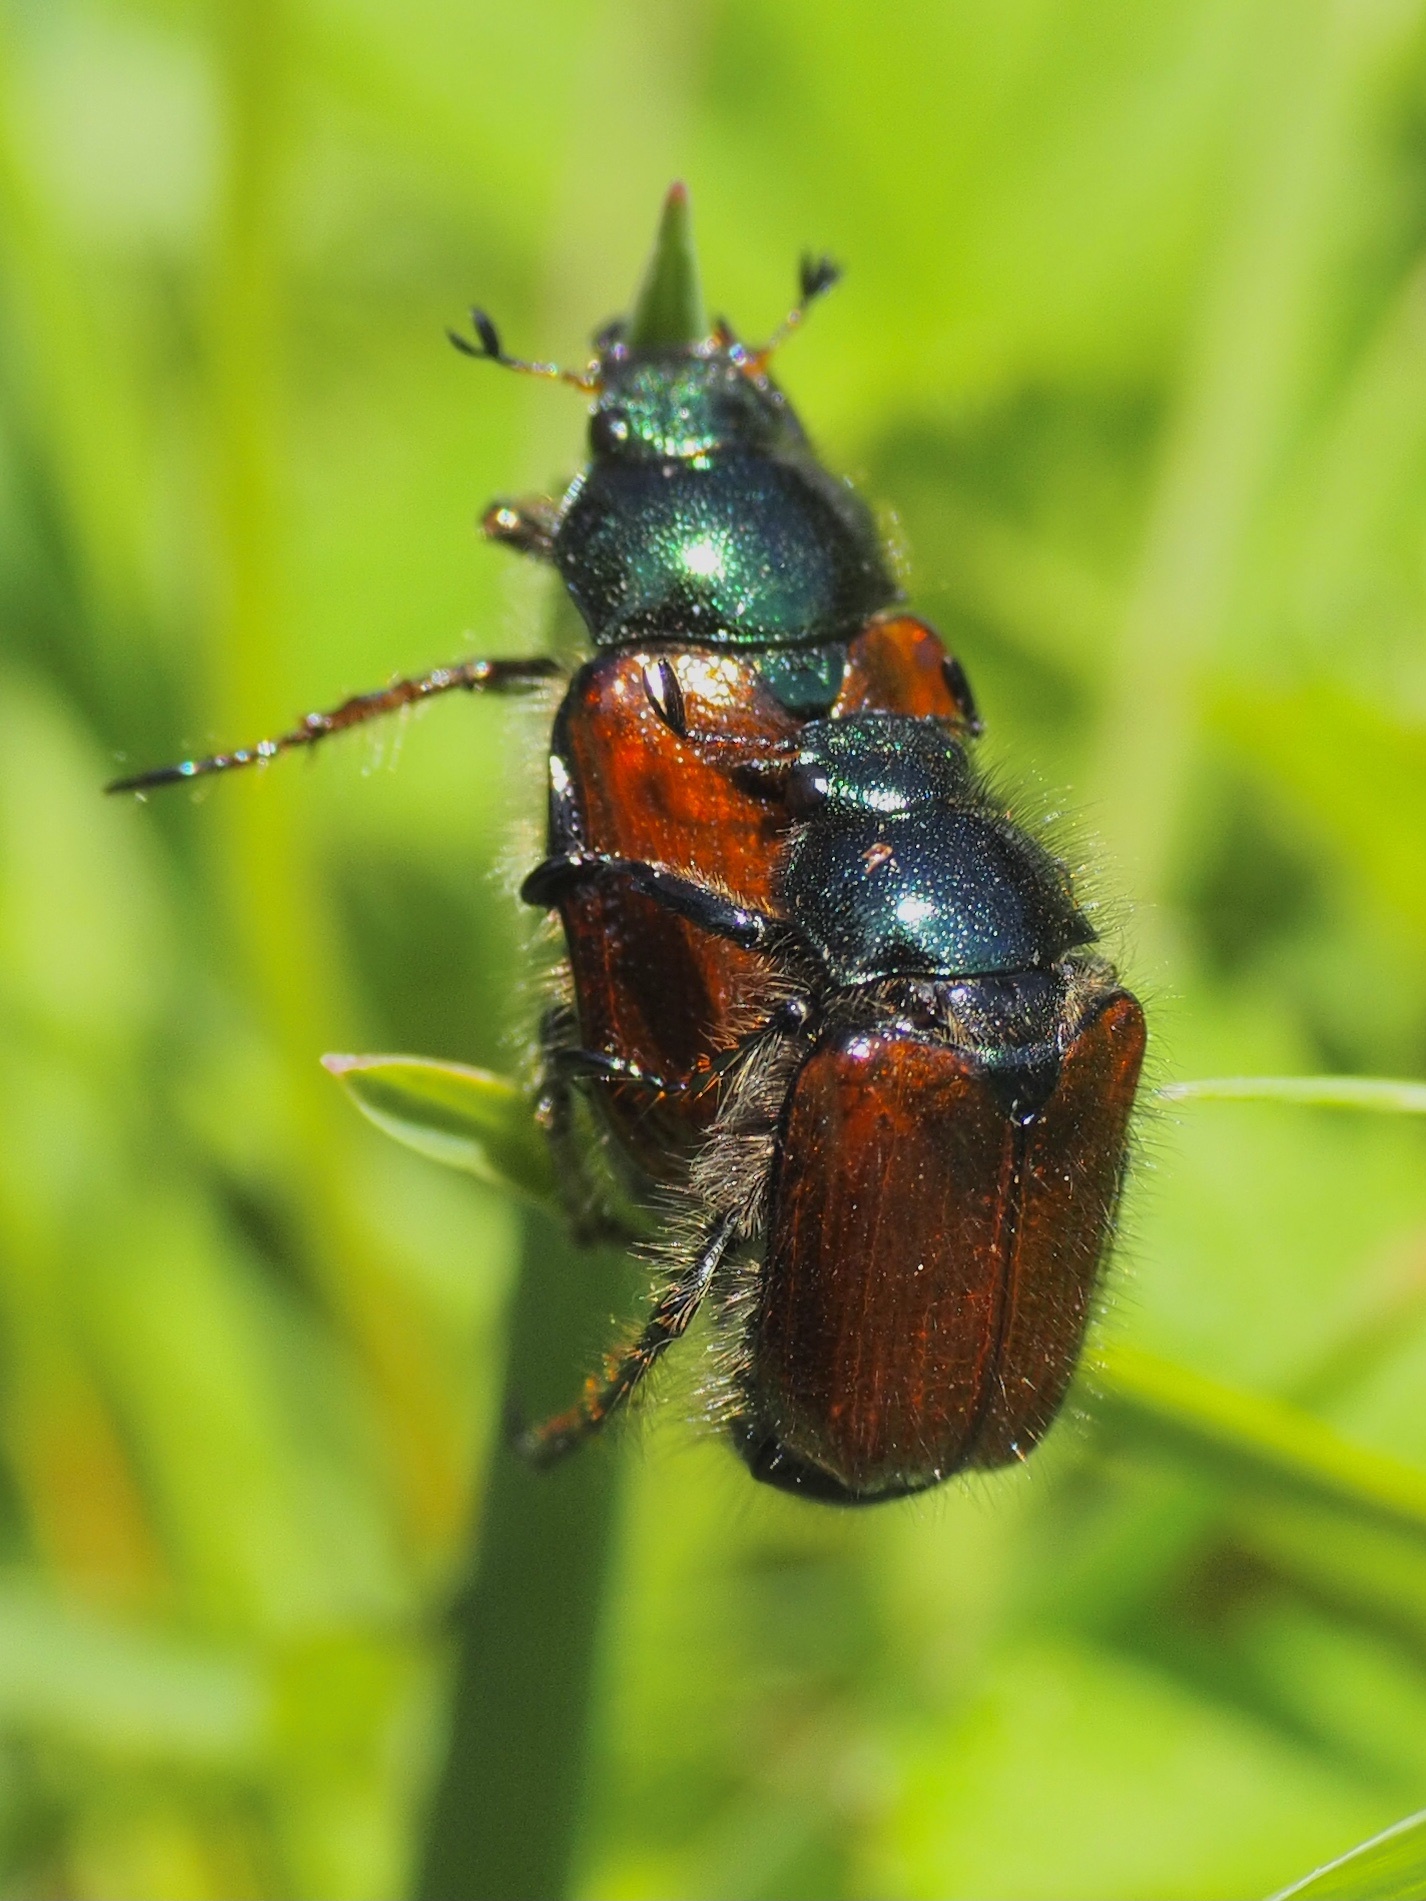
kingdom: Animalia
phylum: Arthropoda
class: Insecta
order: Coleoptera
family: Scarabaeidae
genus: Phyllopertha
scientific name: Phyllopertha horticola
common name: Garden chafer
